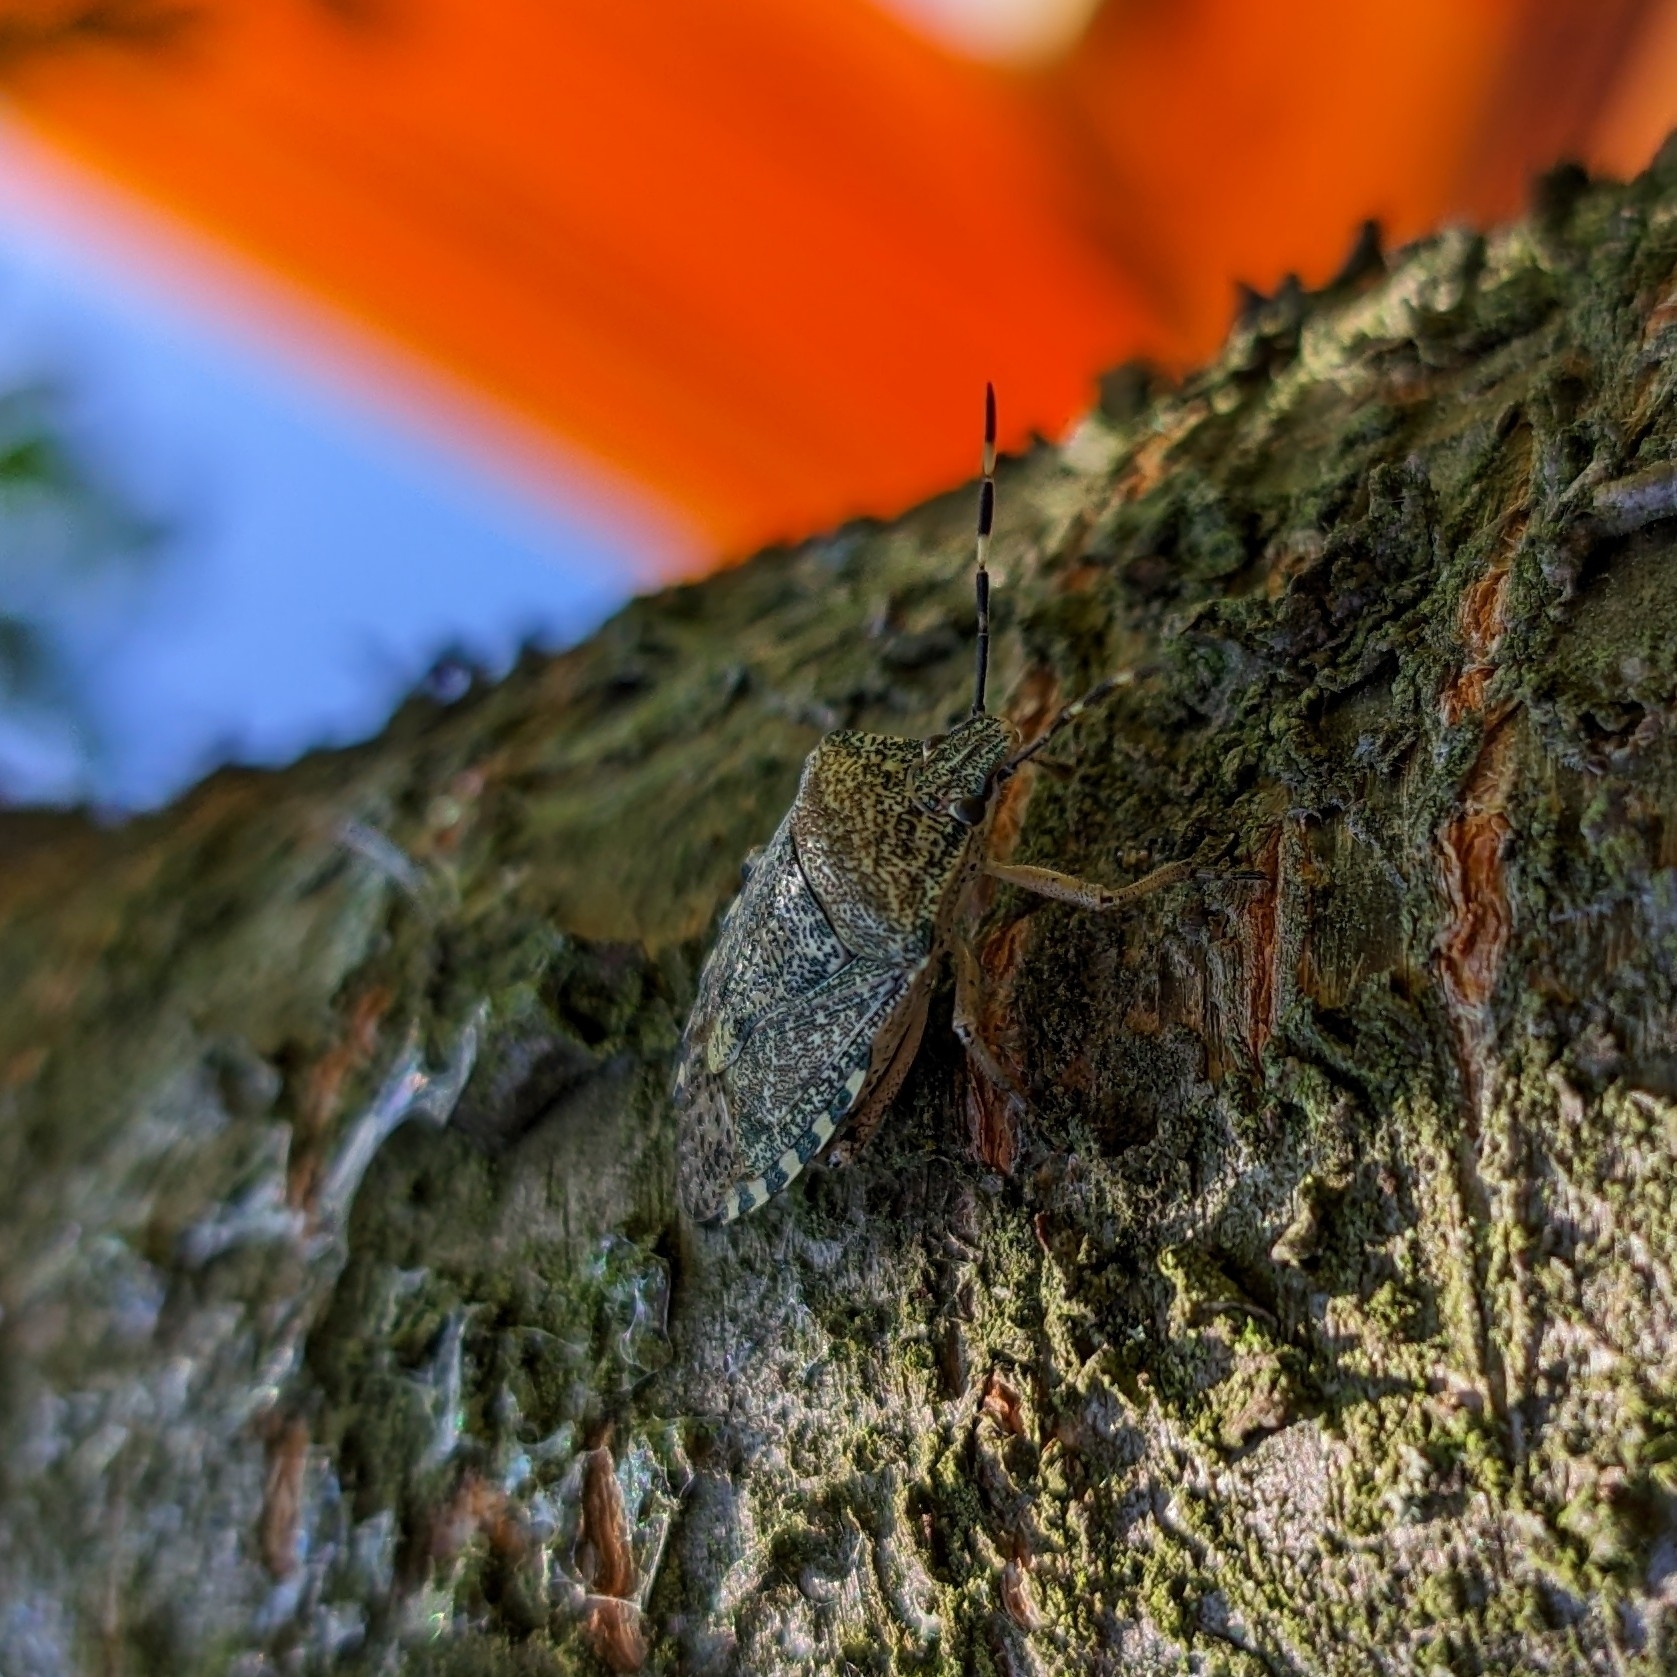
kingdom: Animalia
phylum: Arthropoda
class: Insecta
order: Hemiptera
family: Pentatomidae
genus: Rhaphigaster
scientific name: Rhaphigaster nebulosa
